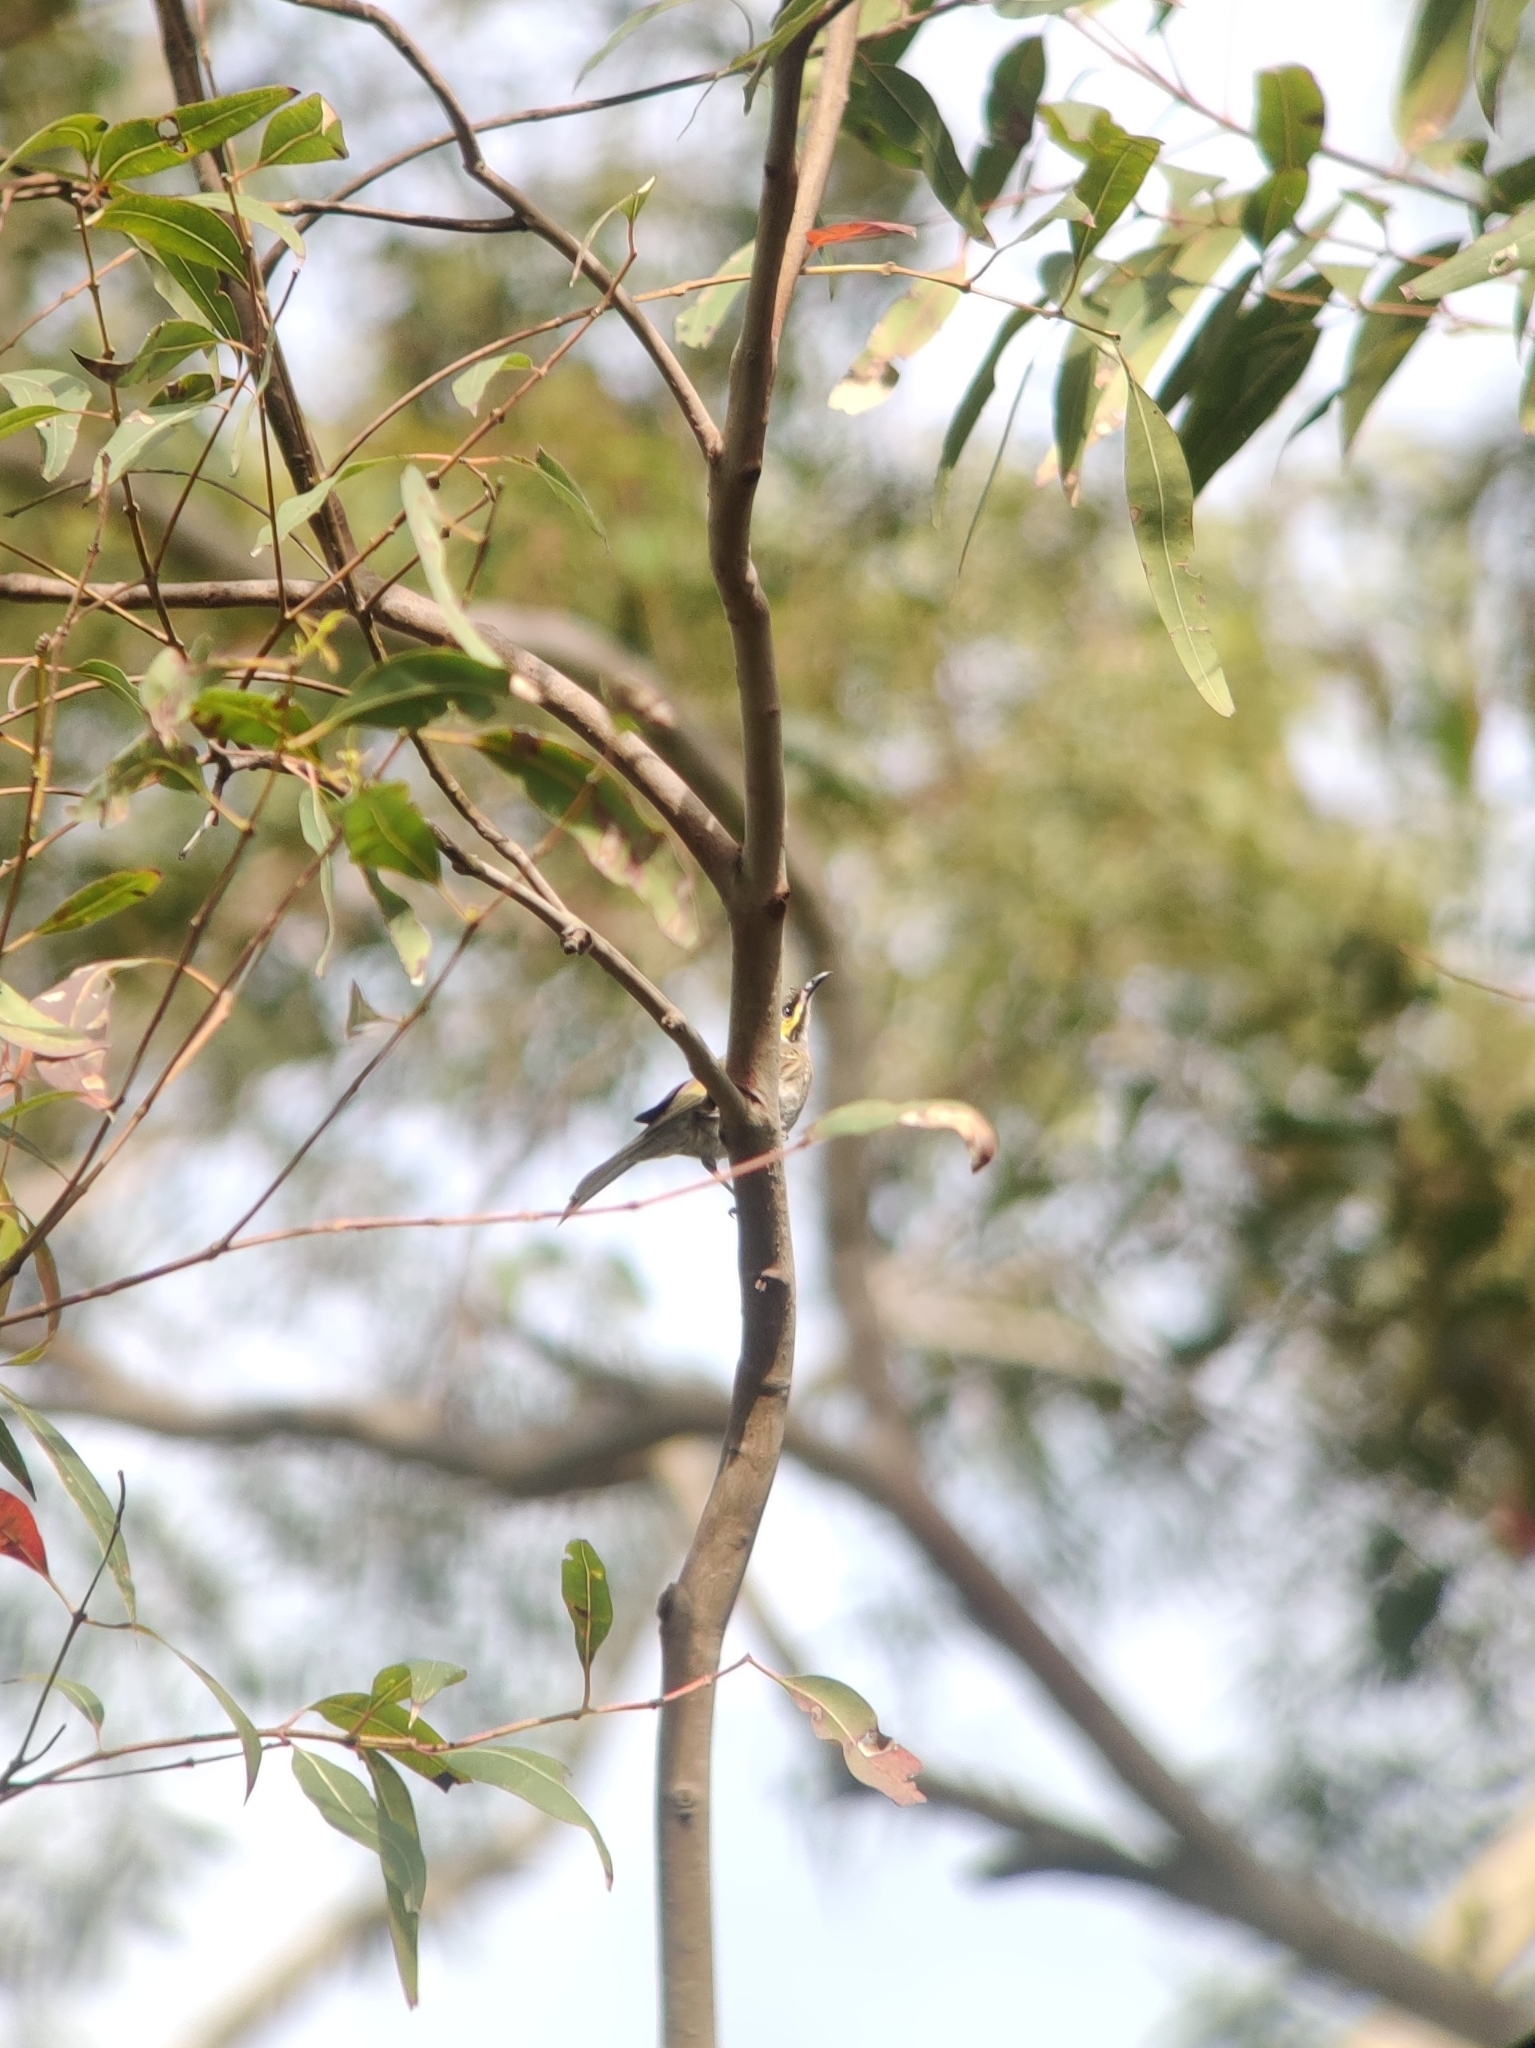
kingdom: Animalia
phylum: Chordata
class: Aves
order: Passeriformes
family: Meliphagidae
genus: Caligavis
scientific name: Caligavis chrysops
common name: Yellow-faced honeyeater
